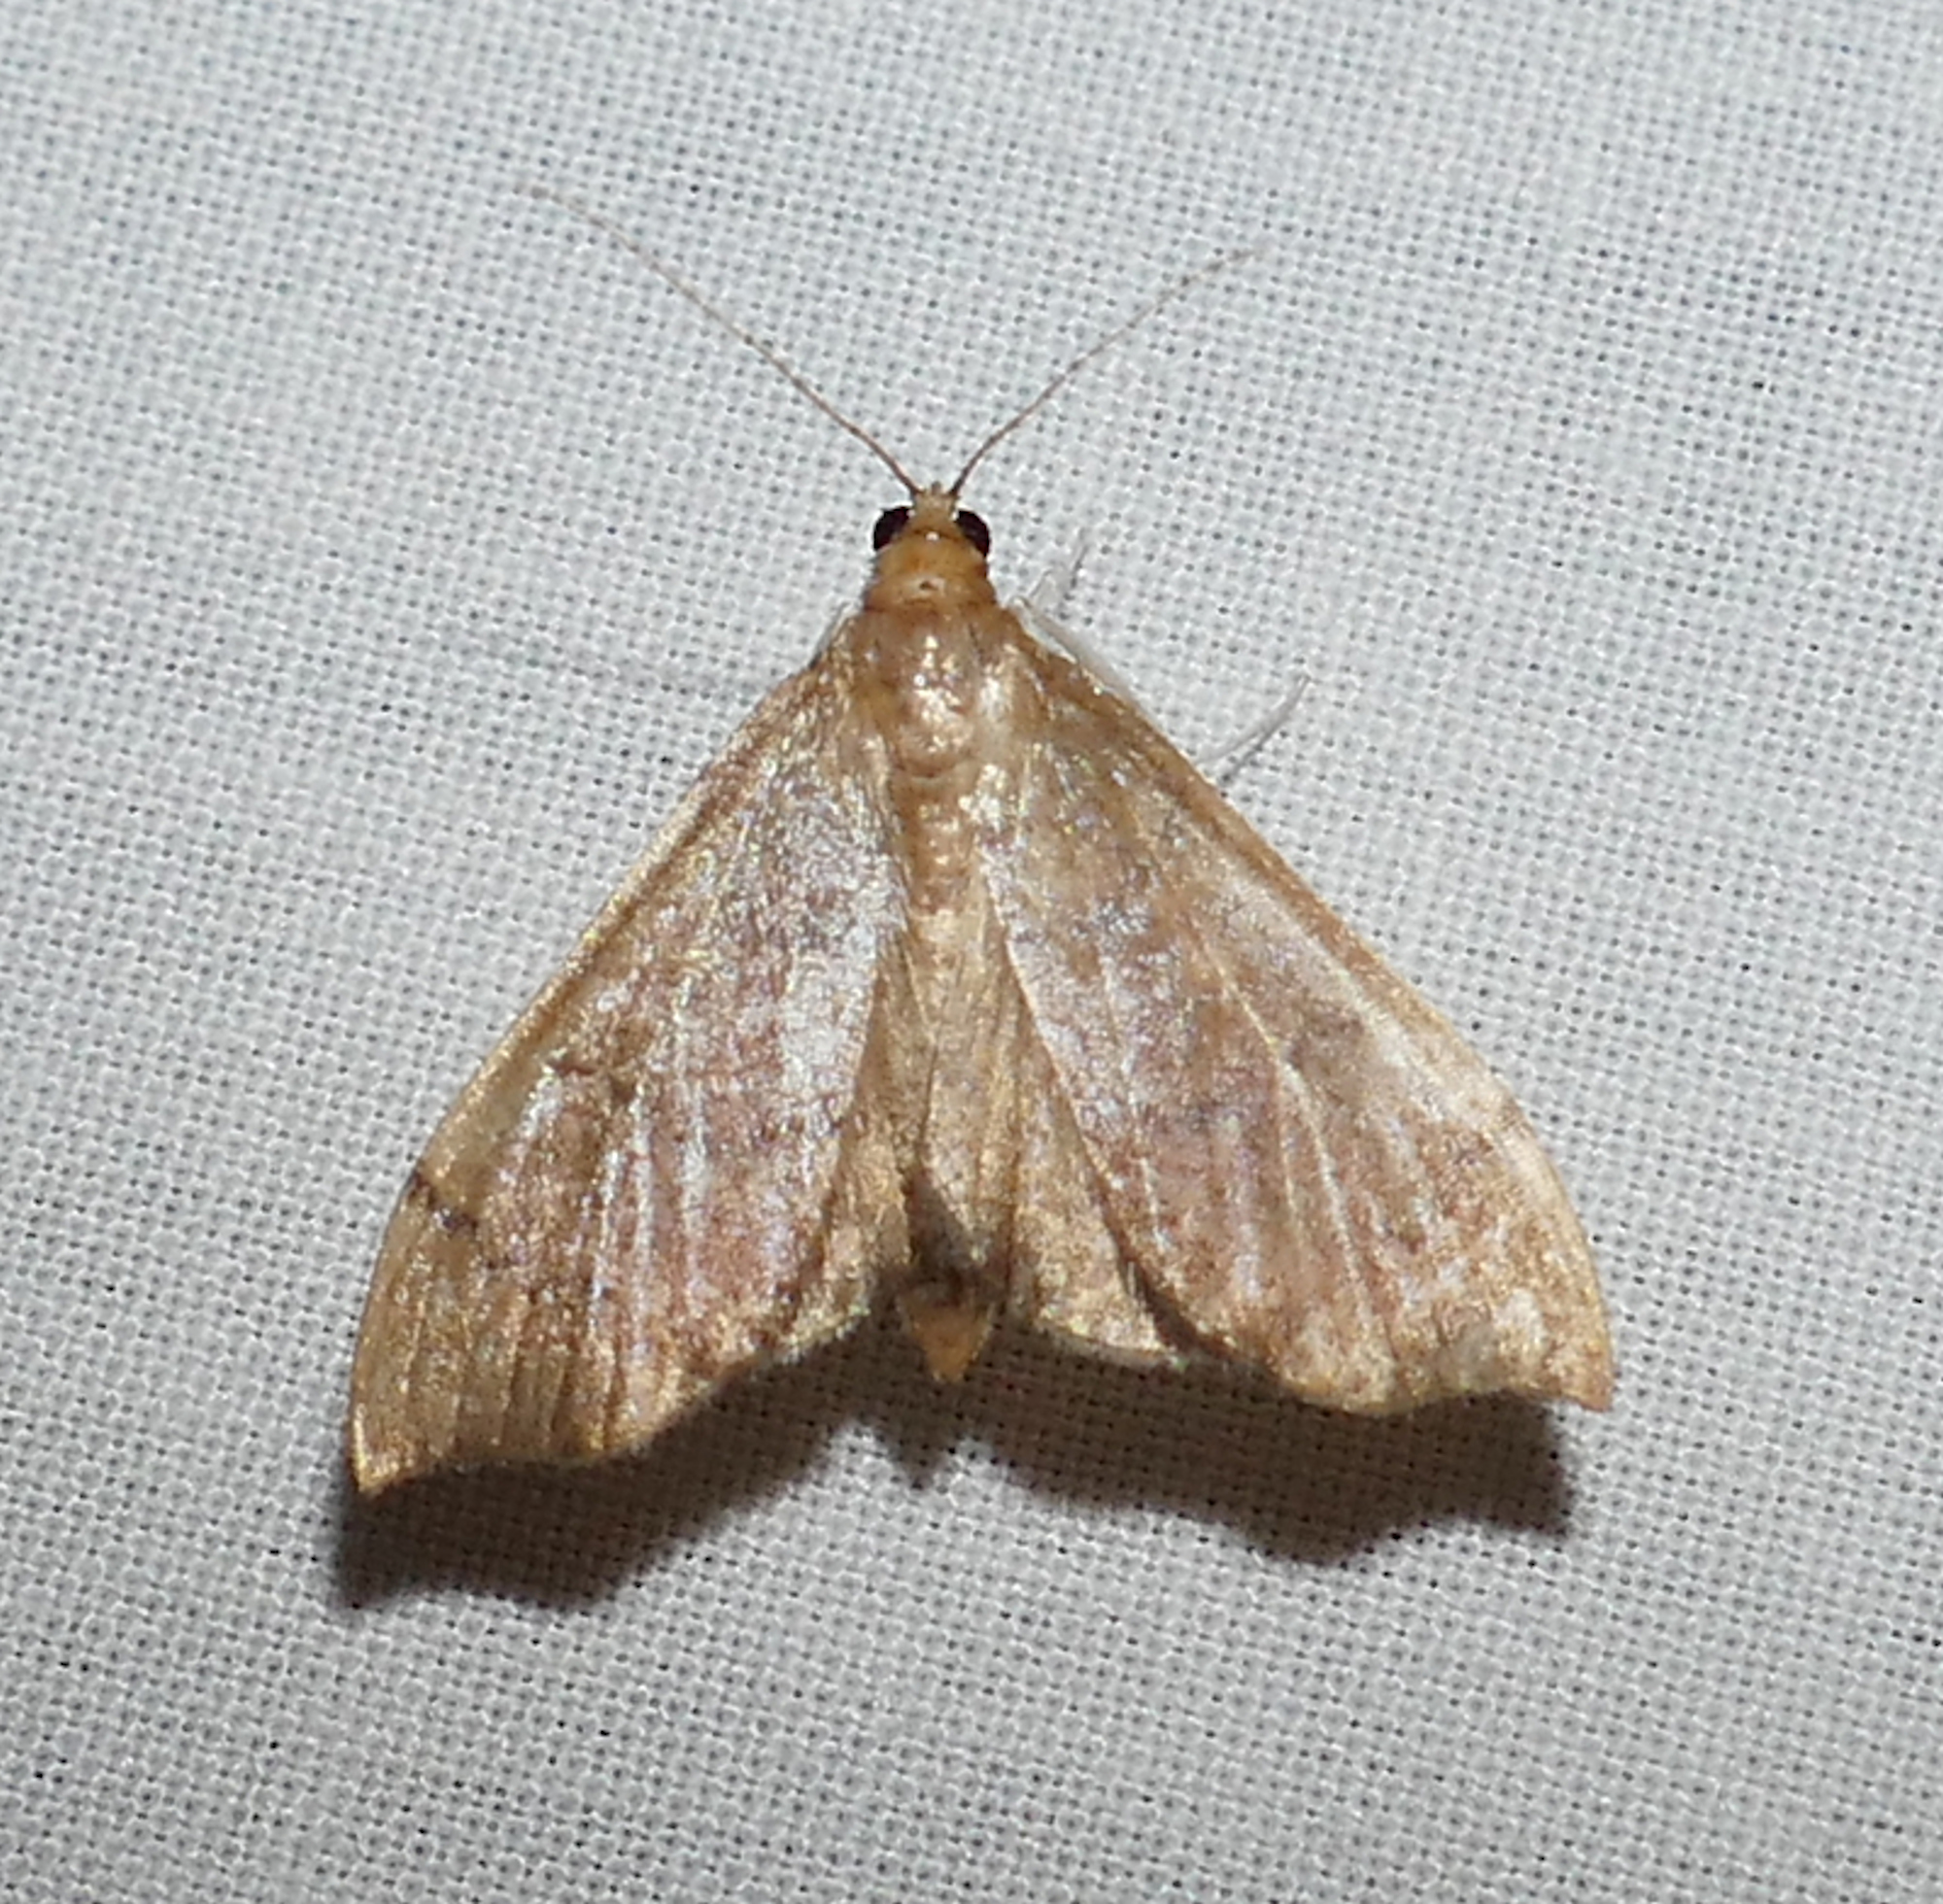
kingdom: Animalia
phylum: Arthropoda
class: Insecta
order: Lepidoptera
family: Crambidae
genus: Sericoplaga
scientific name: Sericoplaga externalis
